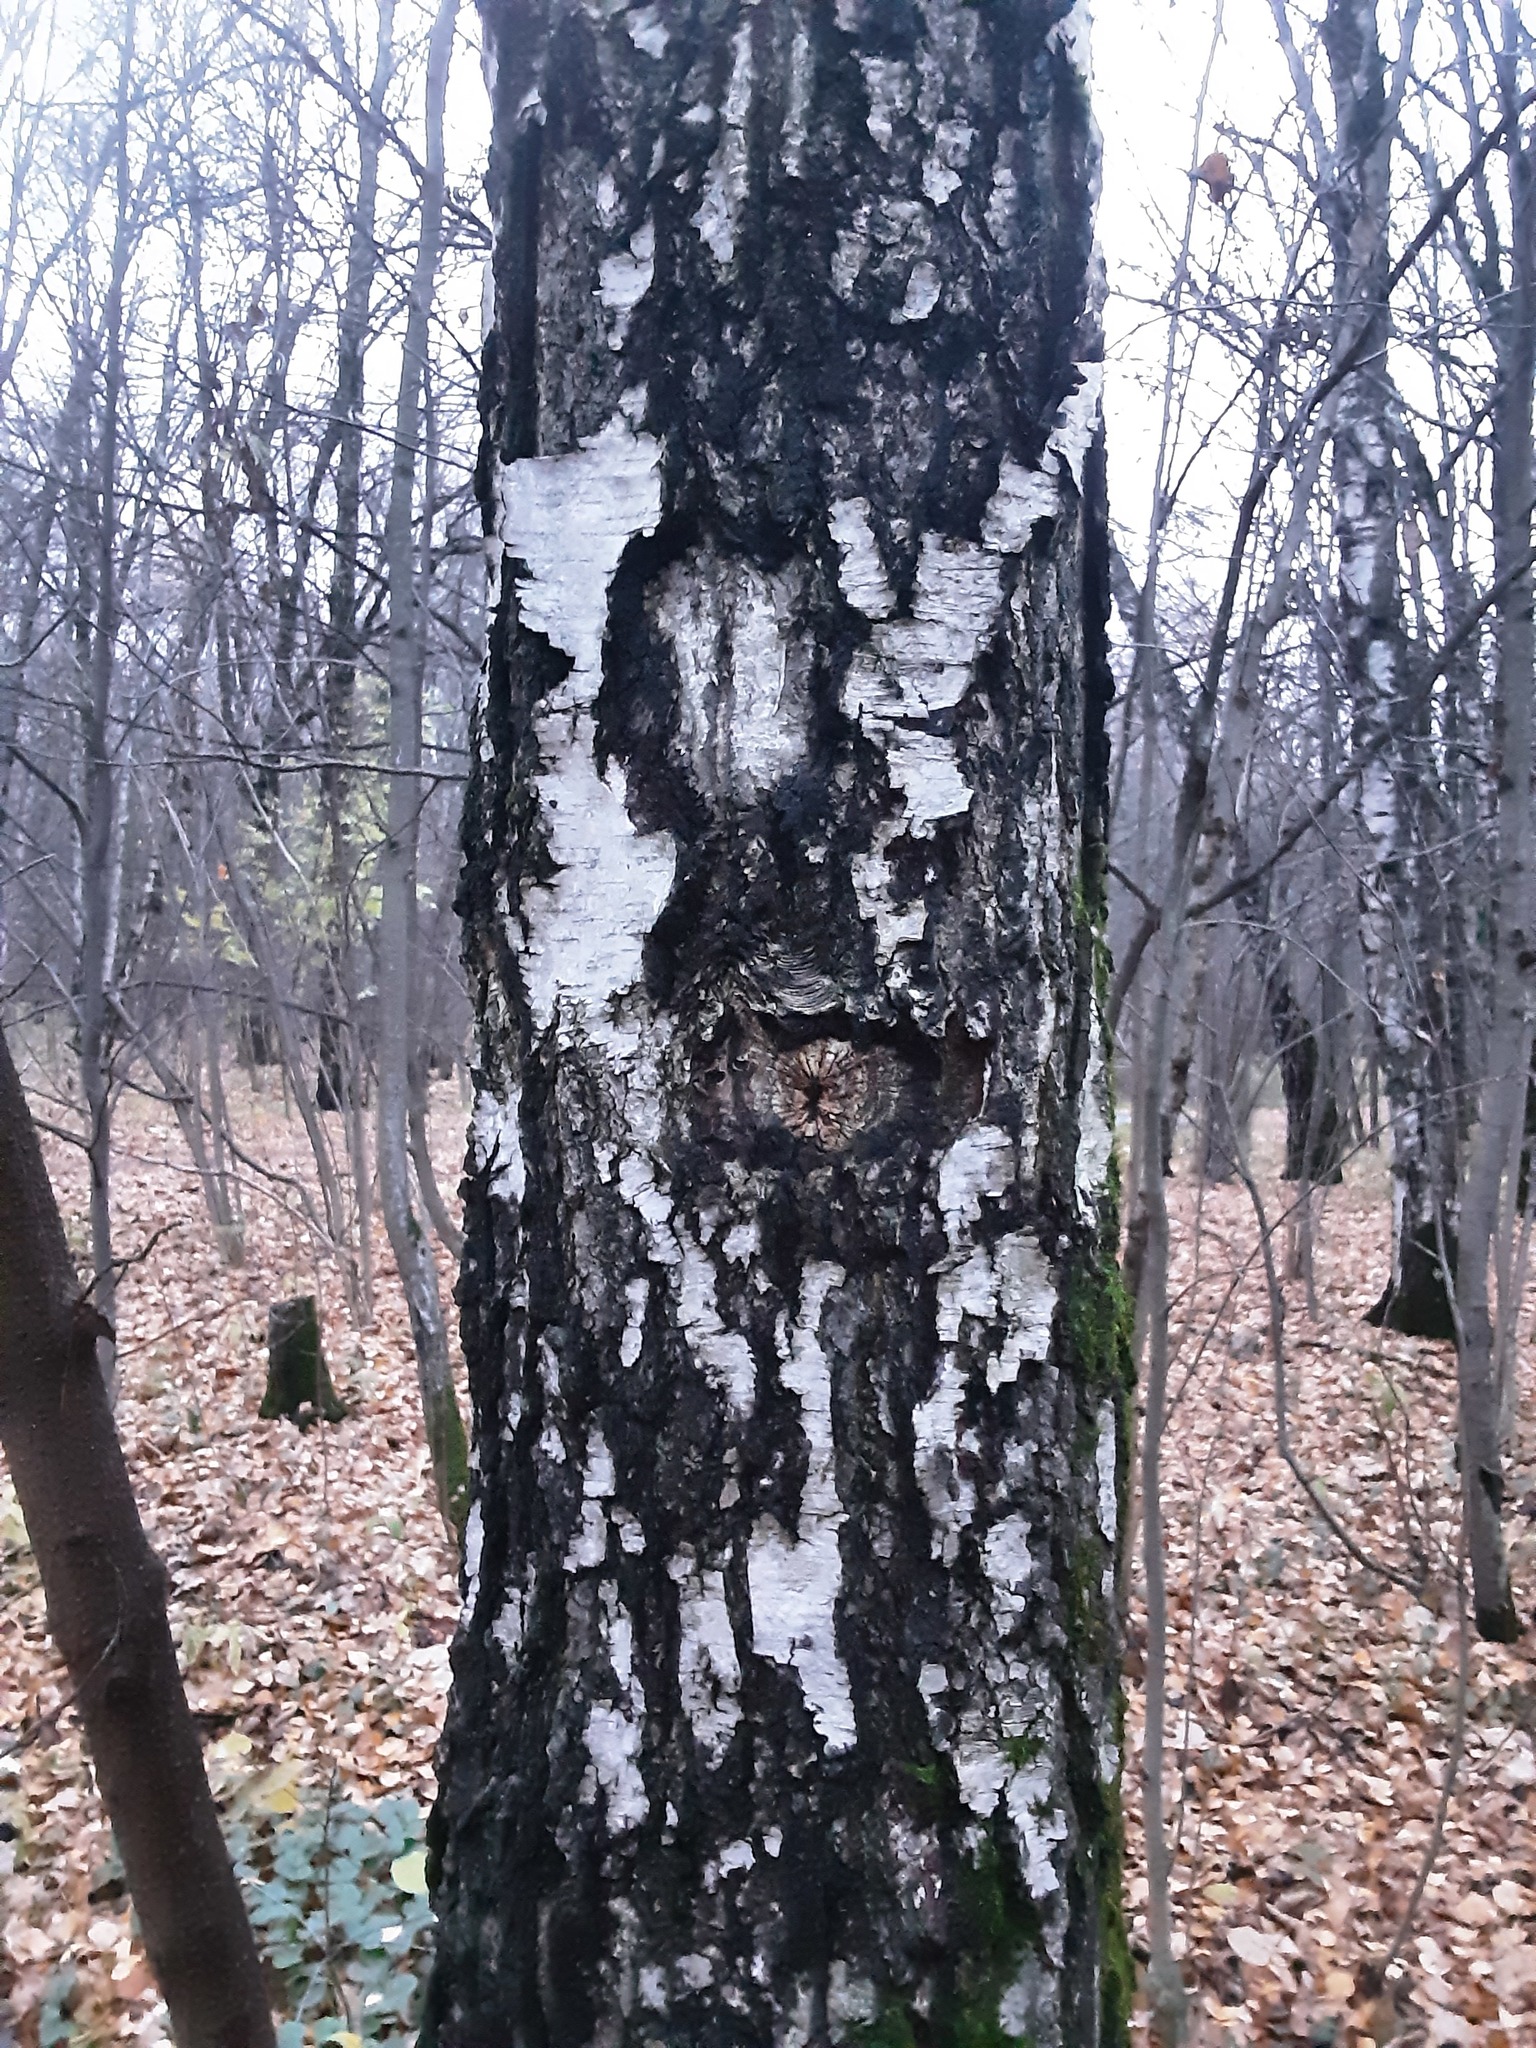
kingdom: Plantae
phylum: Tracheophyta
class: Magnoliopsida
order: Fagales
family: Betulaceae
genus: Betula
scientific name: Betula pendula
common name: Silver birch
